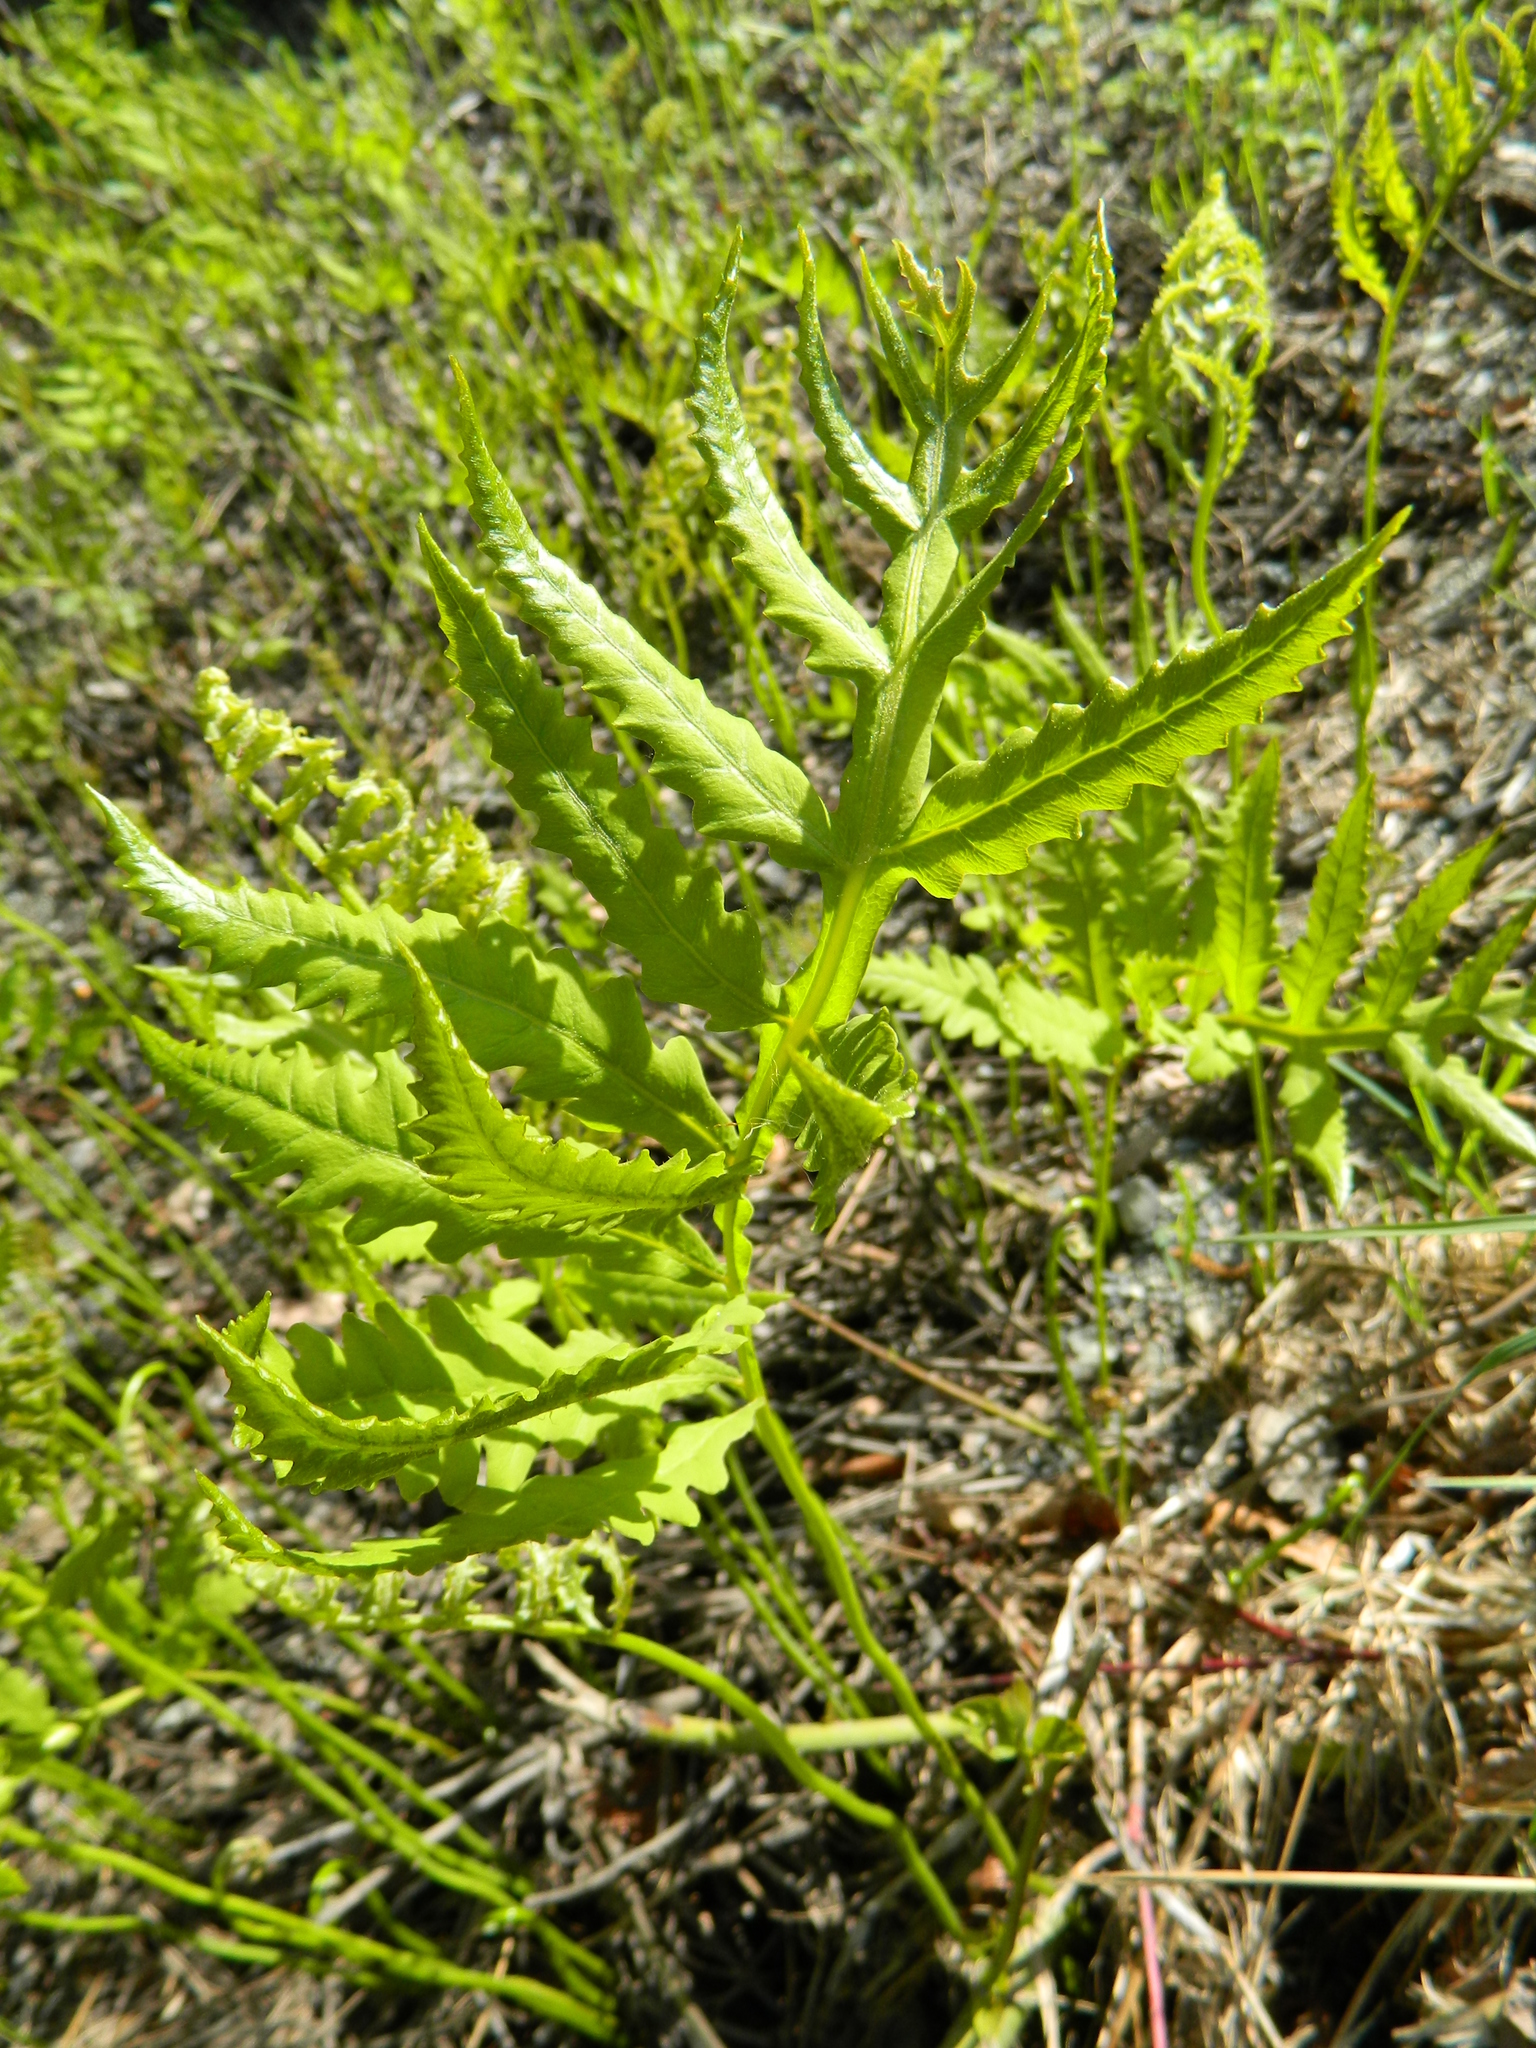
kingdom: Plantae
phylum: Tracheophyta
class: Polypodiopsida
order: Polypodiales
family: Onocleaceae
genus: Onoclea
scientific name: Onoclea sensibilis
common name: Sensitive fern
